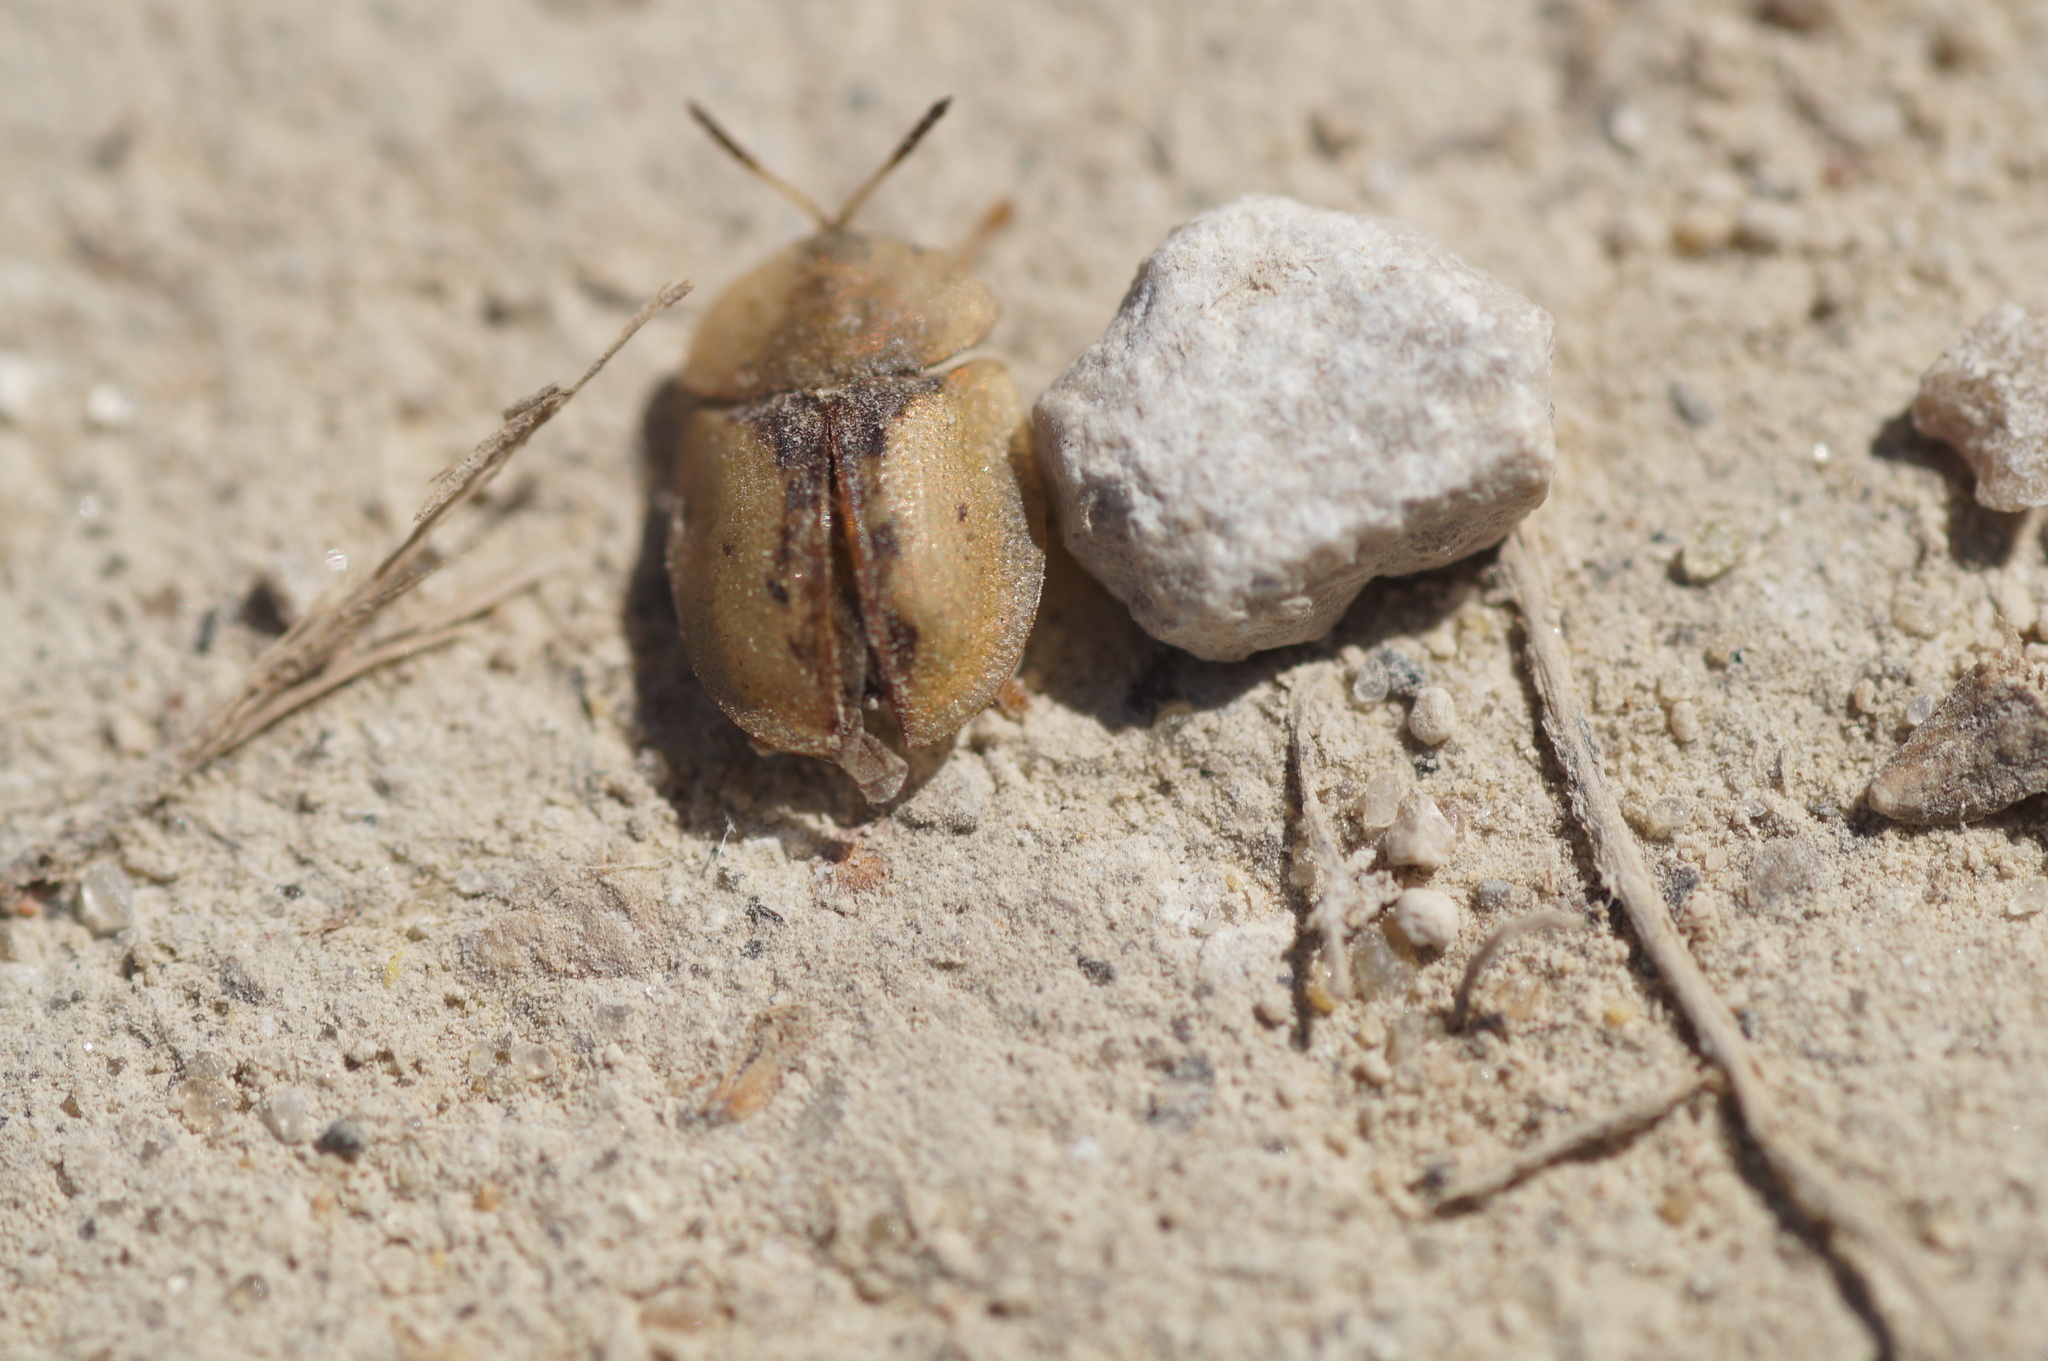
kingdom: Animalia
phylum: Arthropoda
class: Insecta
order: Coleoptera
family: Chrysomelidae
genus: Cassida
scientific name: Cassida vibex
